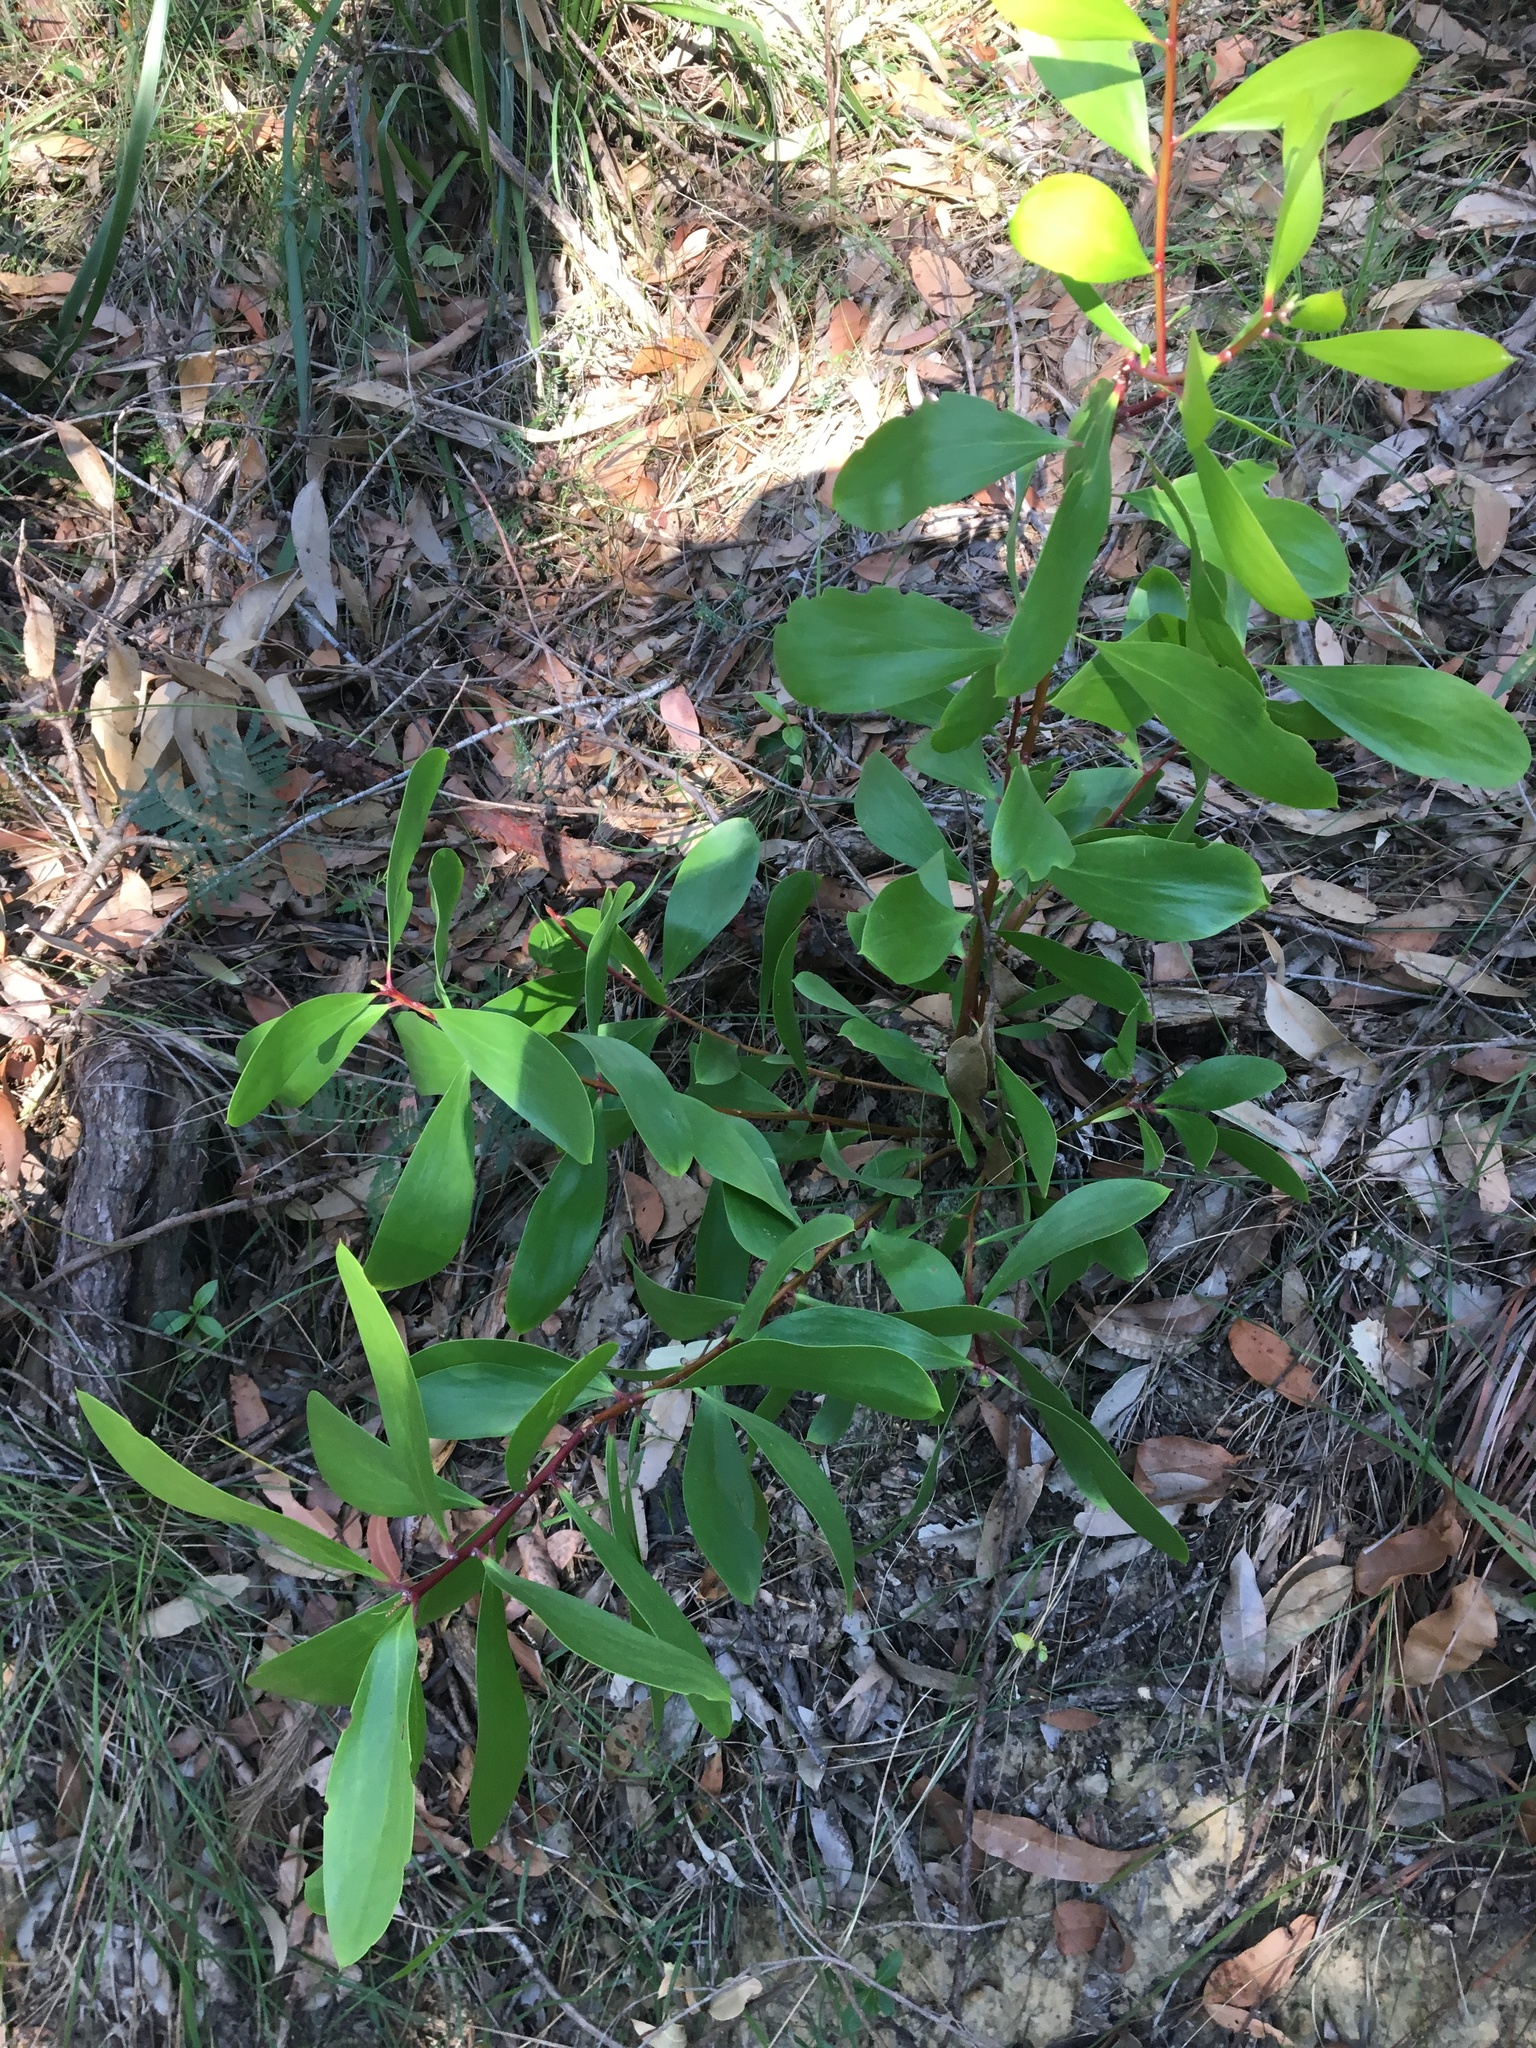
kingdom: Plantae
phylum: Tracheophyta
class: Magnoliopsida
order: Proteales
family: Proteaceae
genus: Persoonia
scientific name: Persoonia levis
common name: Smooth geebung
